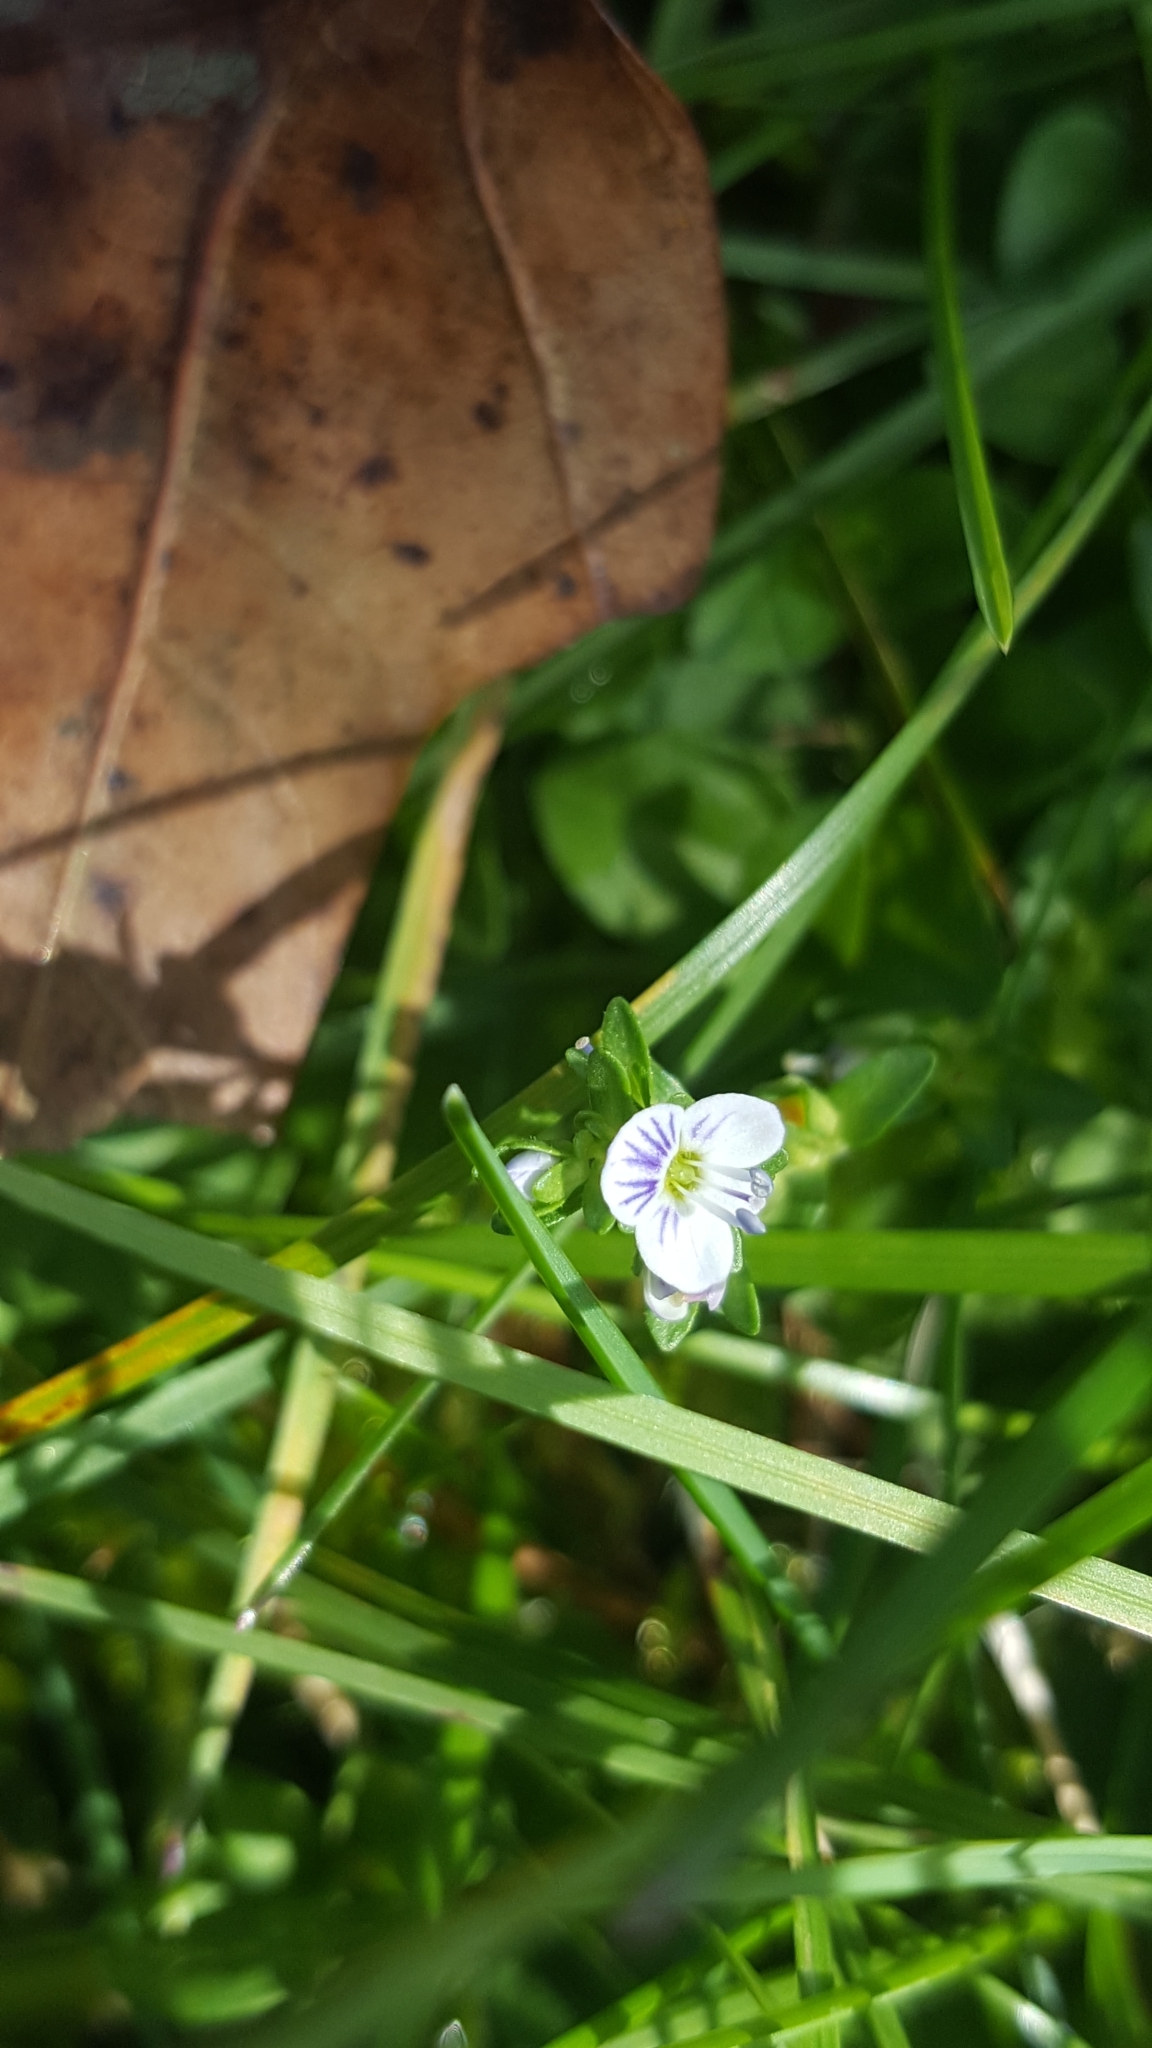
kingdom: Plantae
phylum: Tracheophyta
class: Magnoliopsida
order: Lamiales
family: Plantaginaceae
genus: Veronica
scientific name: Veronica serpyllifolia
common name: Thyme-leaved speedwell
